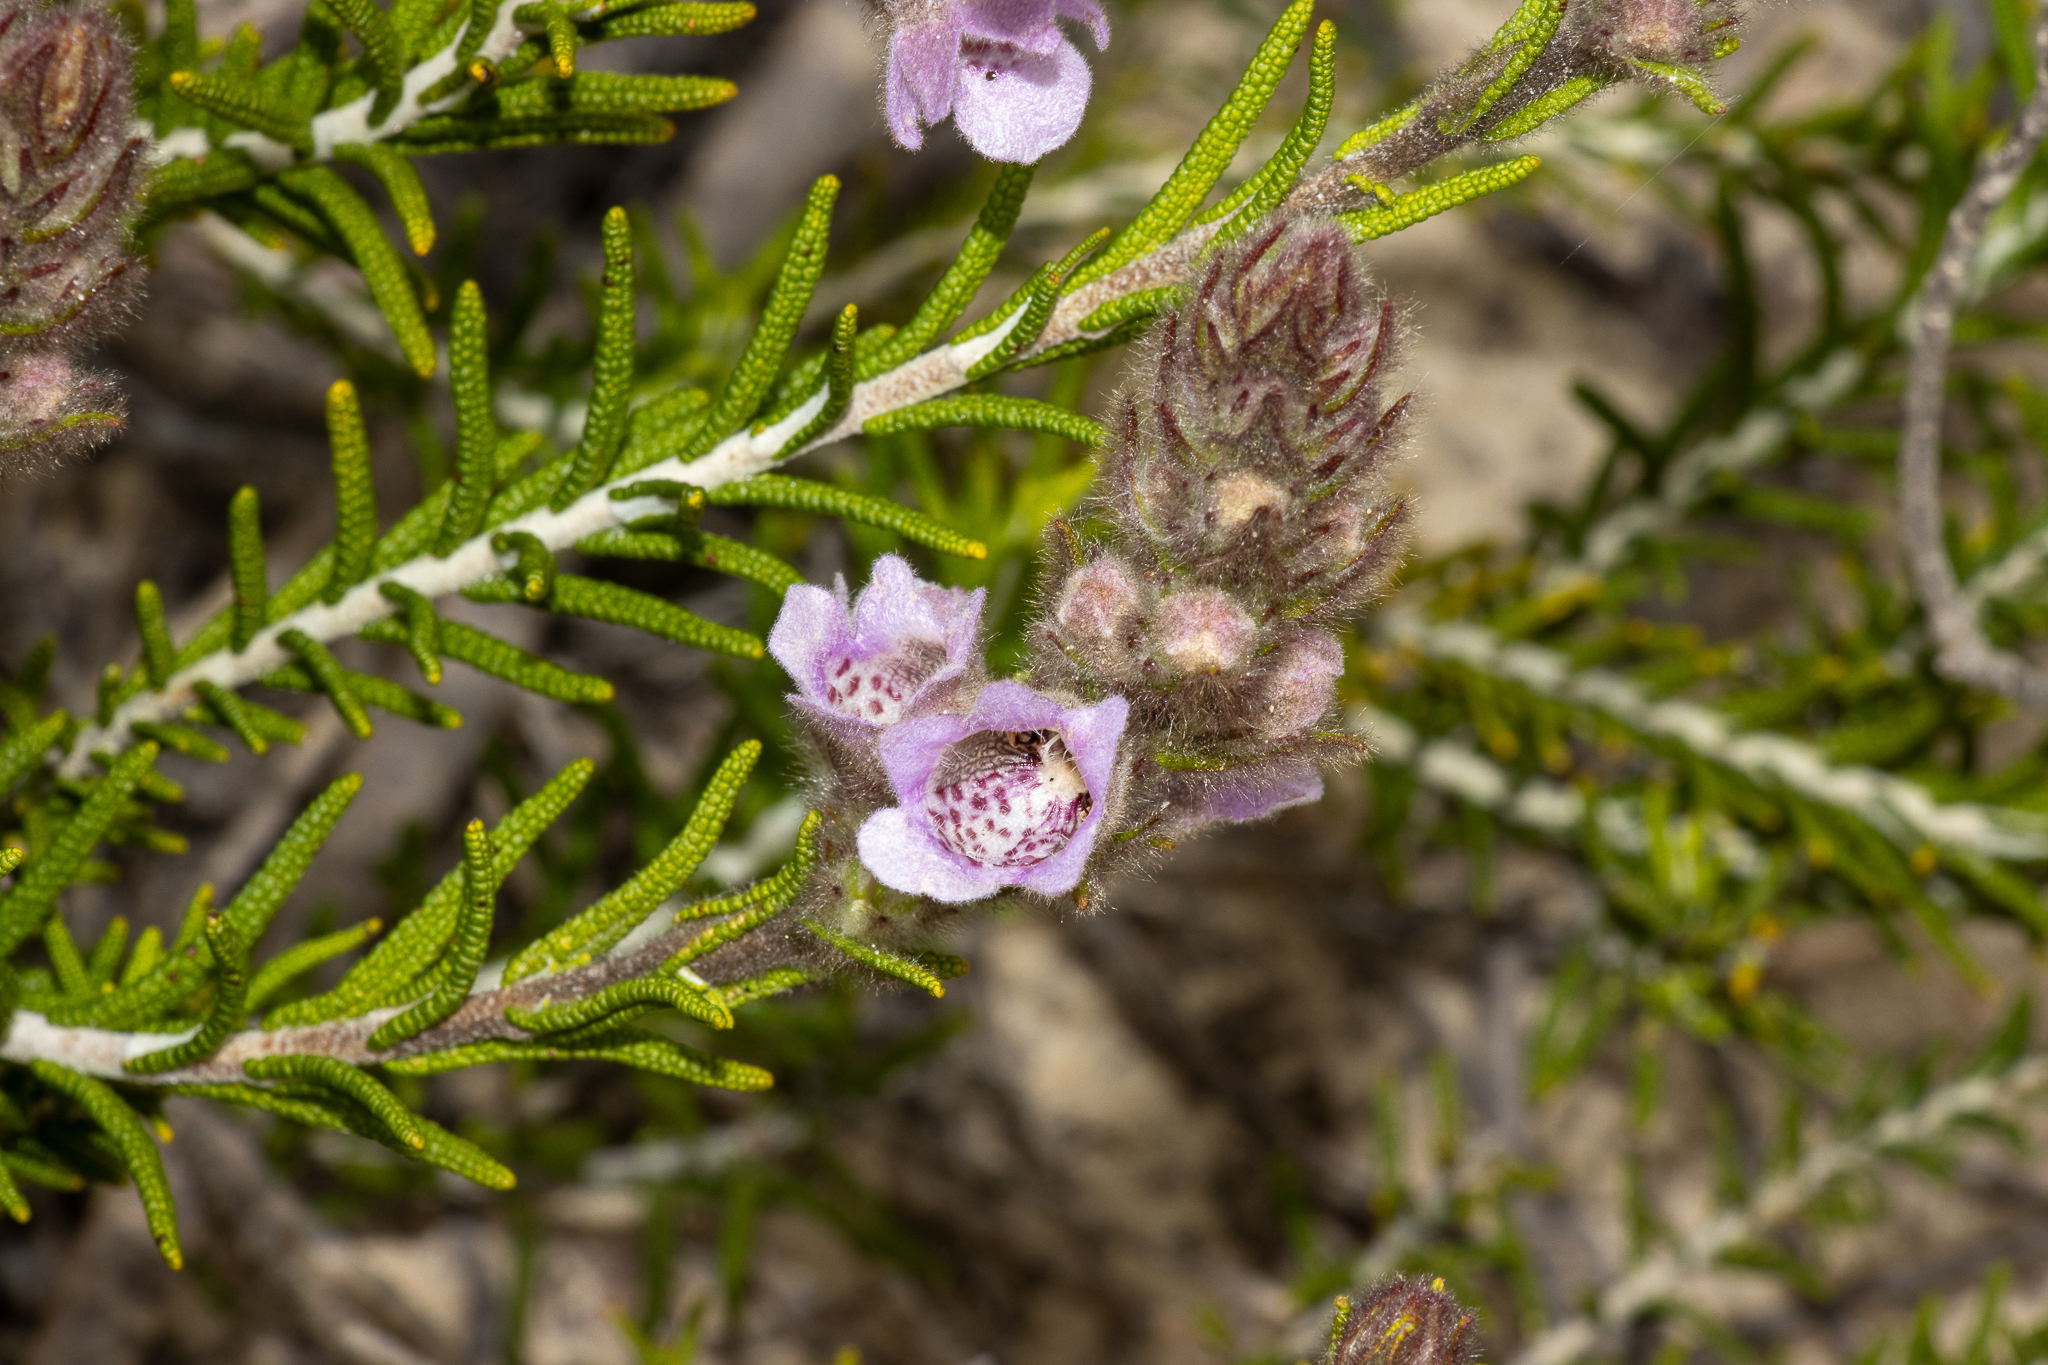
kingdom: Plantae
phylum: Tracheophyta
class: Magnoliopsida
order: Lamiales
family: Lamiaceae
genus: Hemiphora
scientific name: Hemiphora bartlingii
